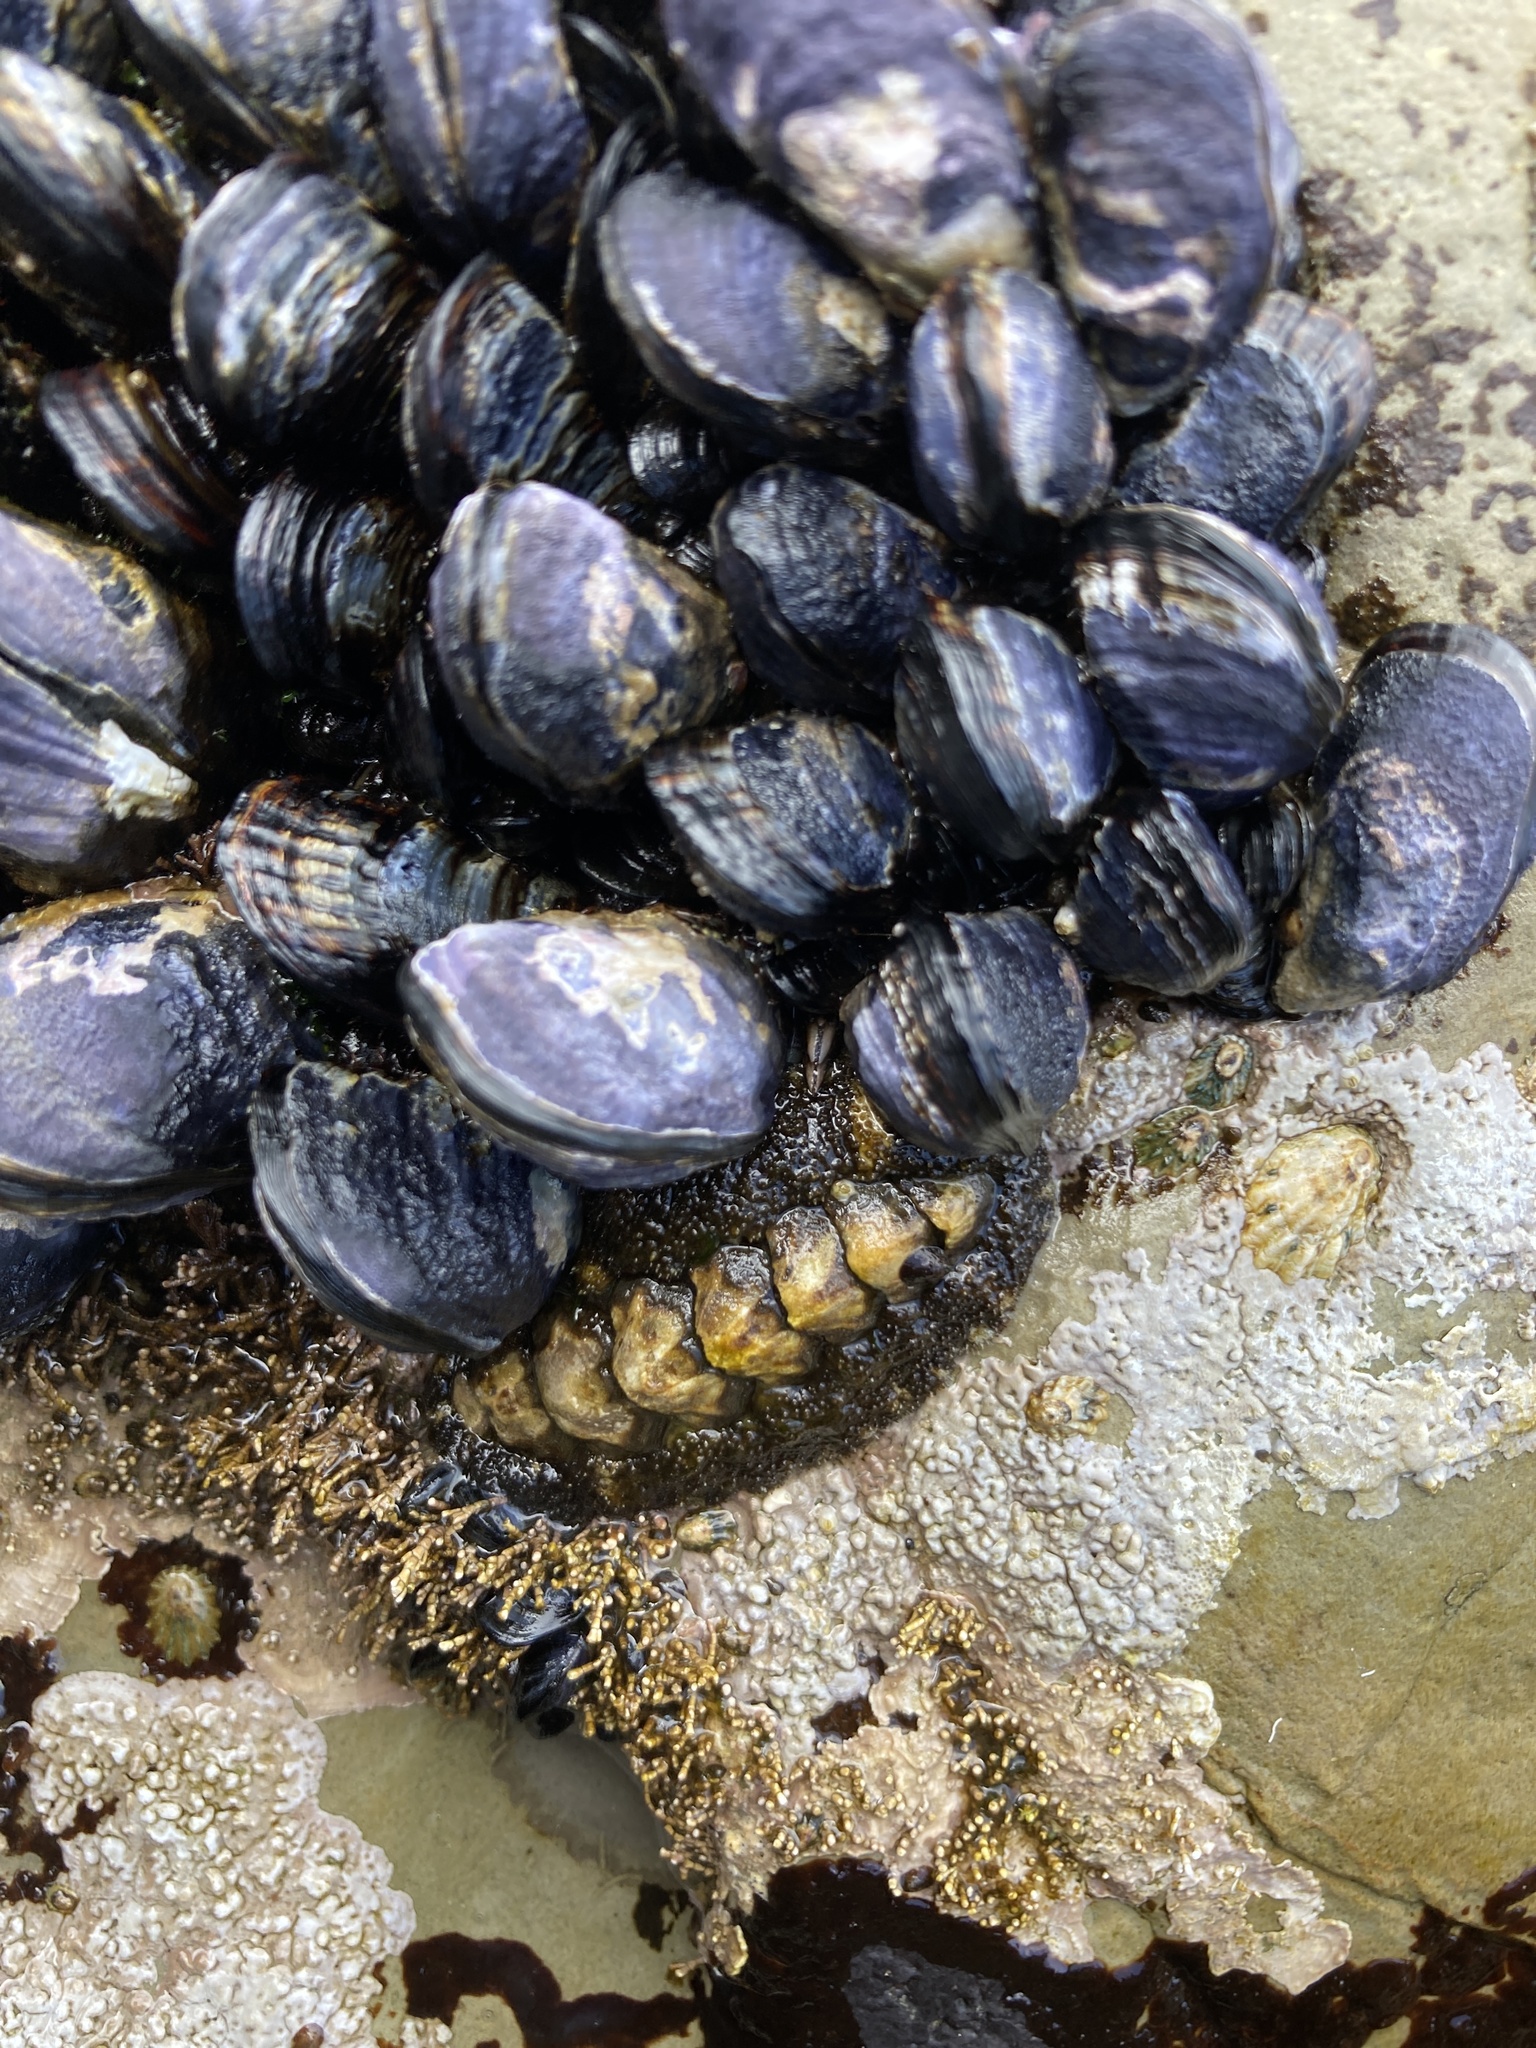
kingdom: Animalia
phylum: Mollusca
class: Polyplacophora
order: Chitonida
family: Tonicellidae
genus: Nuttallina
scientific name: Nuttallina californica
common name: California nuttall chiton
